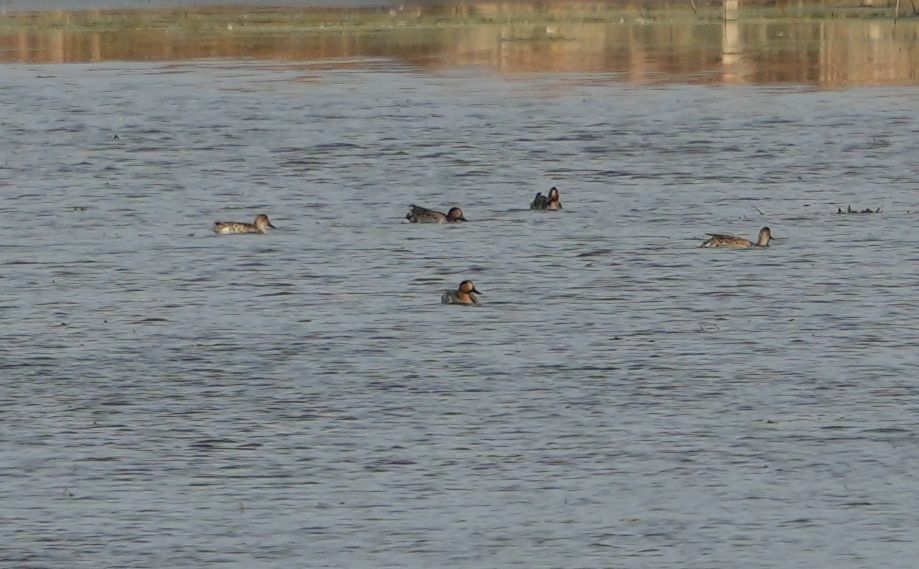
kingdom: Animalia
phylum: Chordata
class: Aves
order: Anseriformes
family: Anatidae
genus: Anas
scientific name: Anas crecca
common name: Eurasian teal
